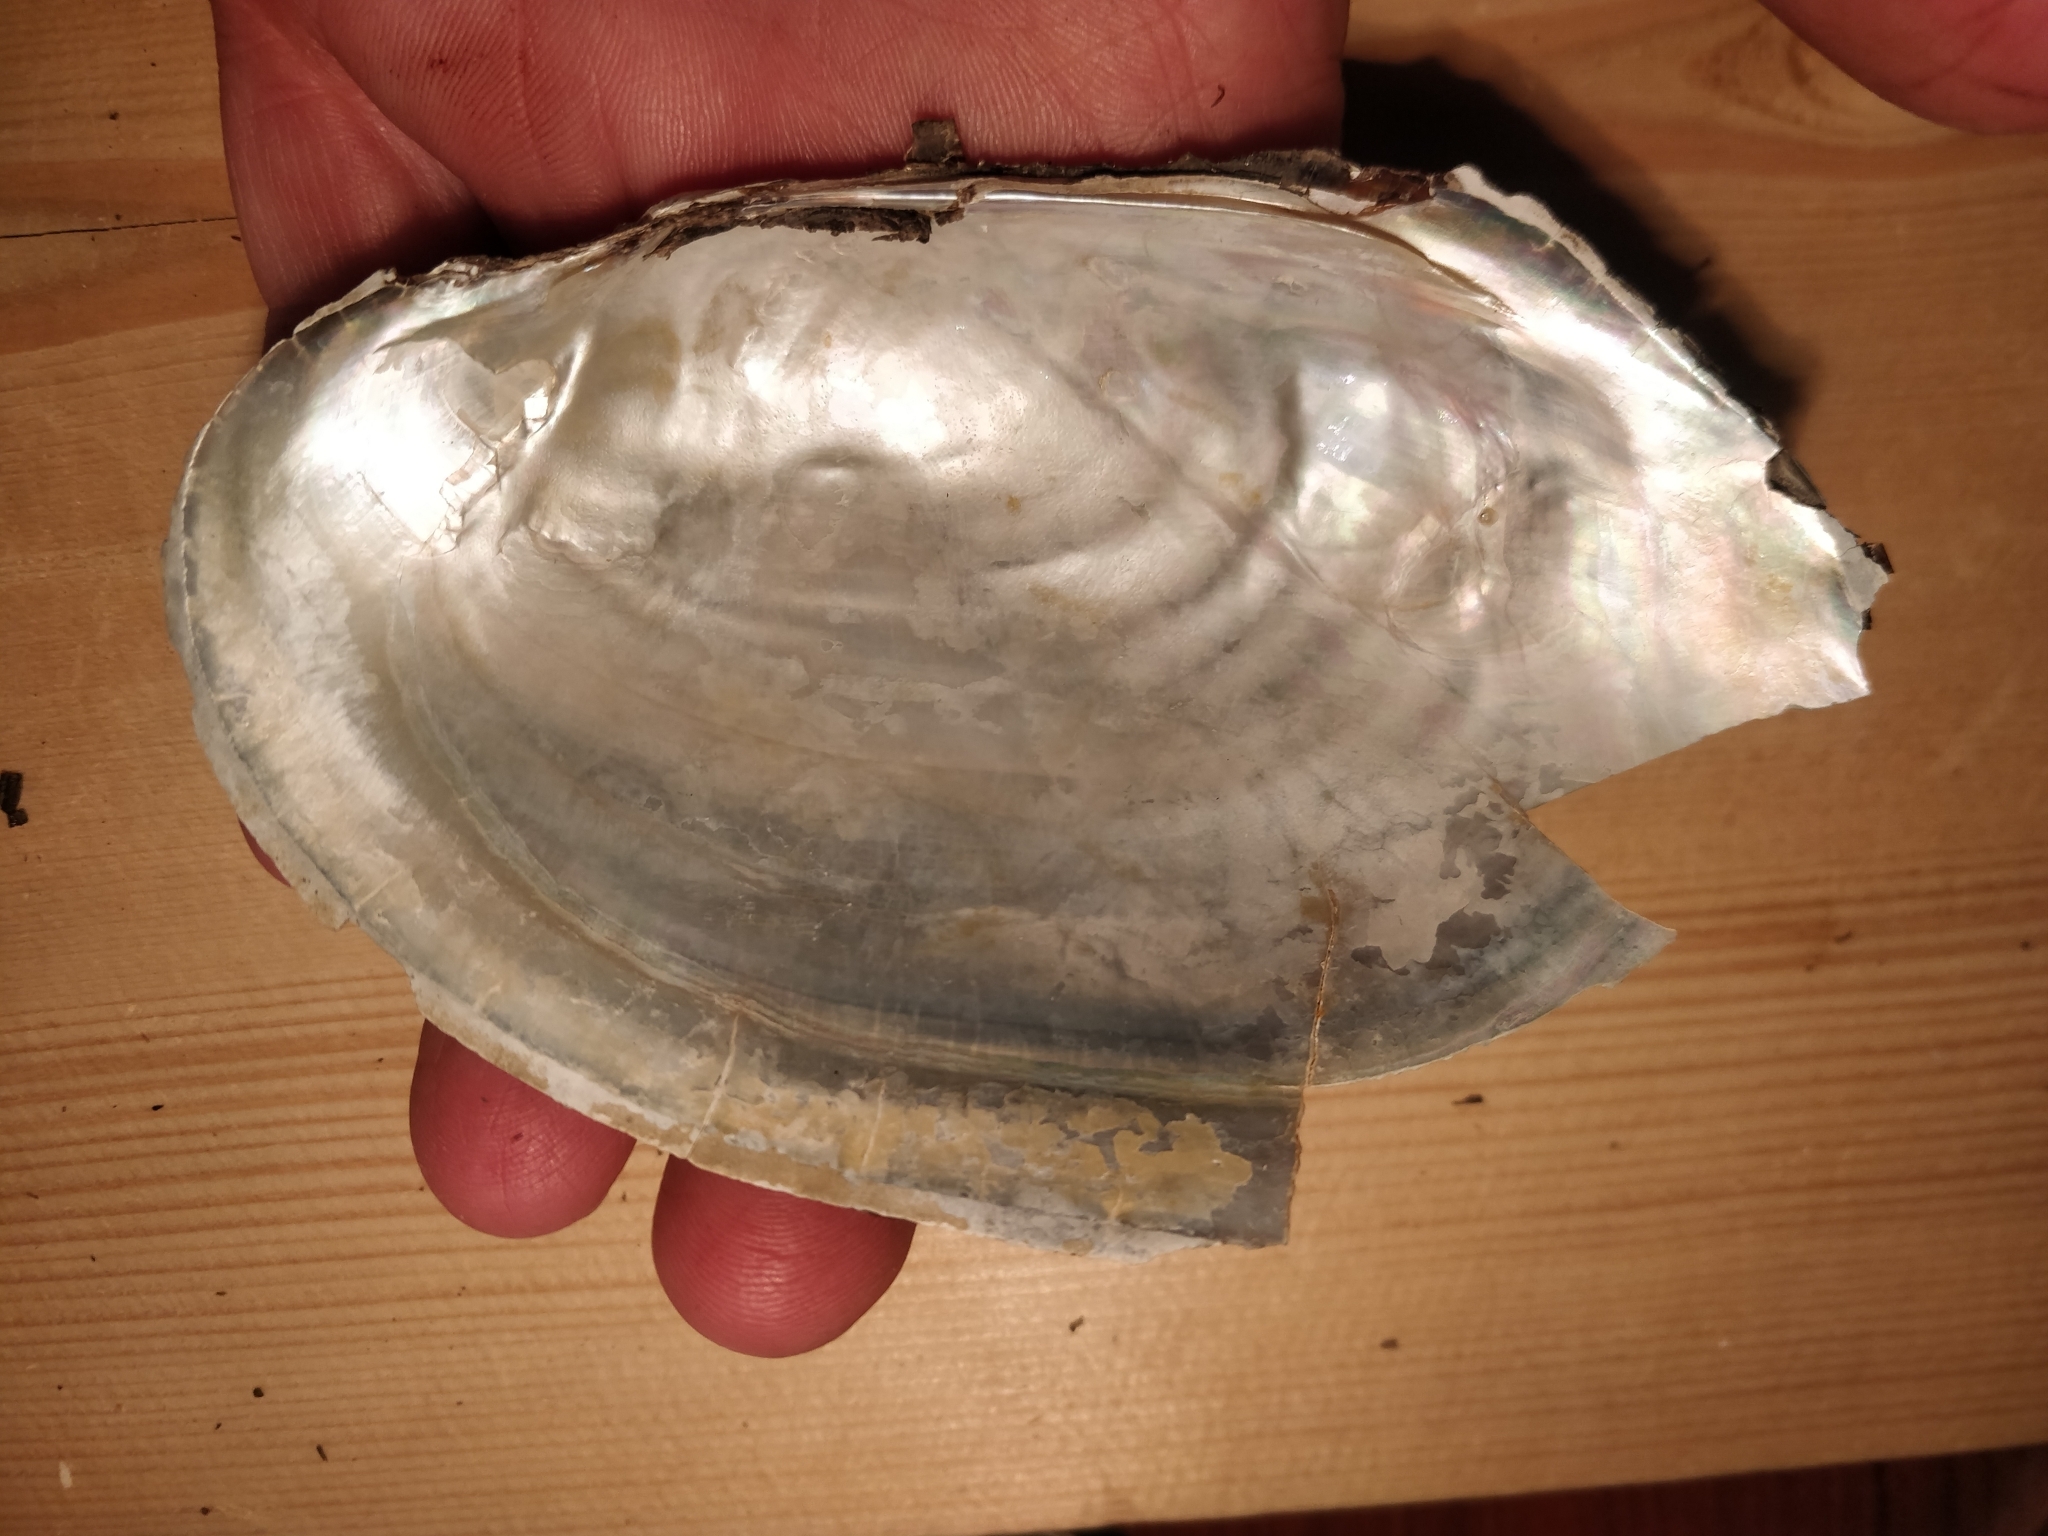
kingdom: Animalia
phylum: Mollusca
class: Bivalvia
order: Unionida
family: Unionidae
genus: Potamilus
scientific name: Potamilus fragilis
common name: Fragile papershell
